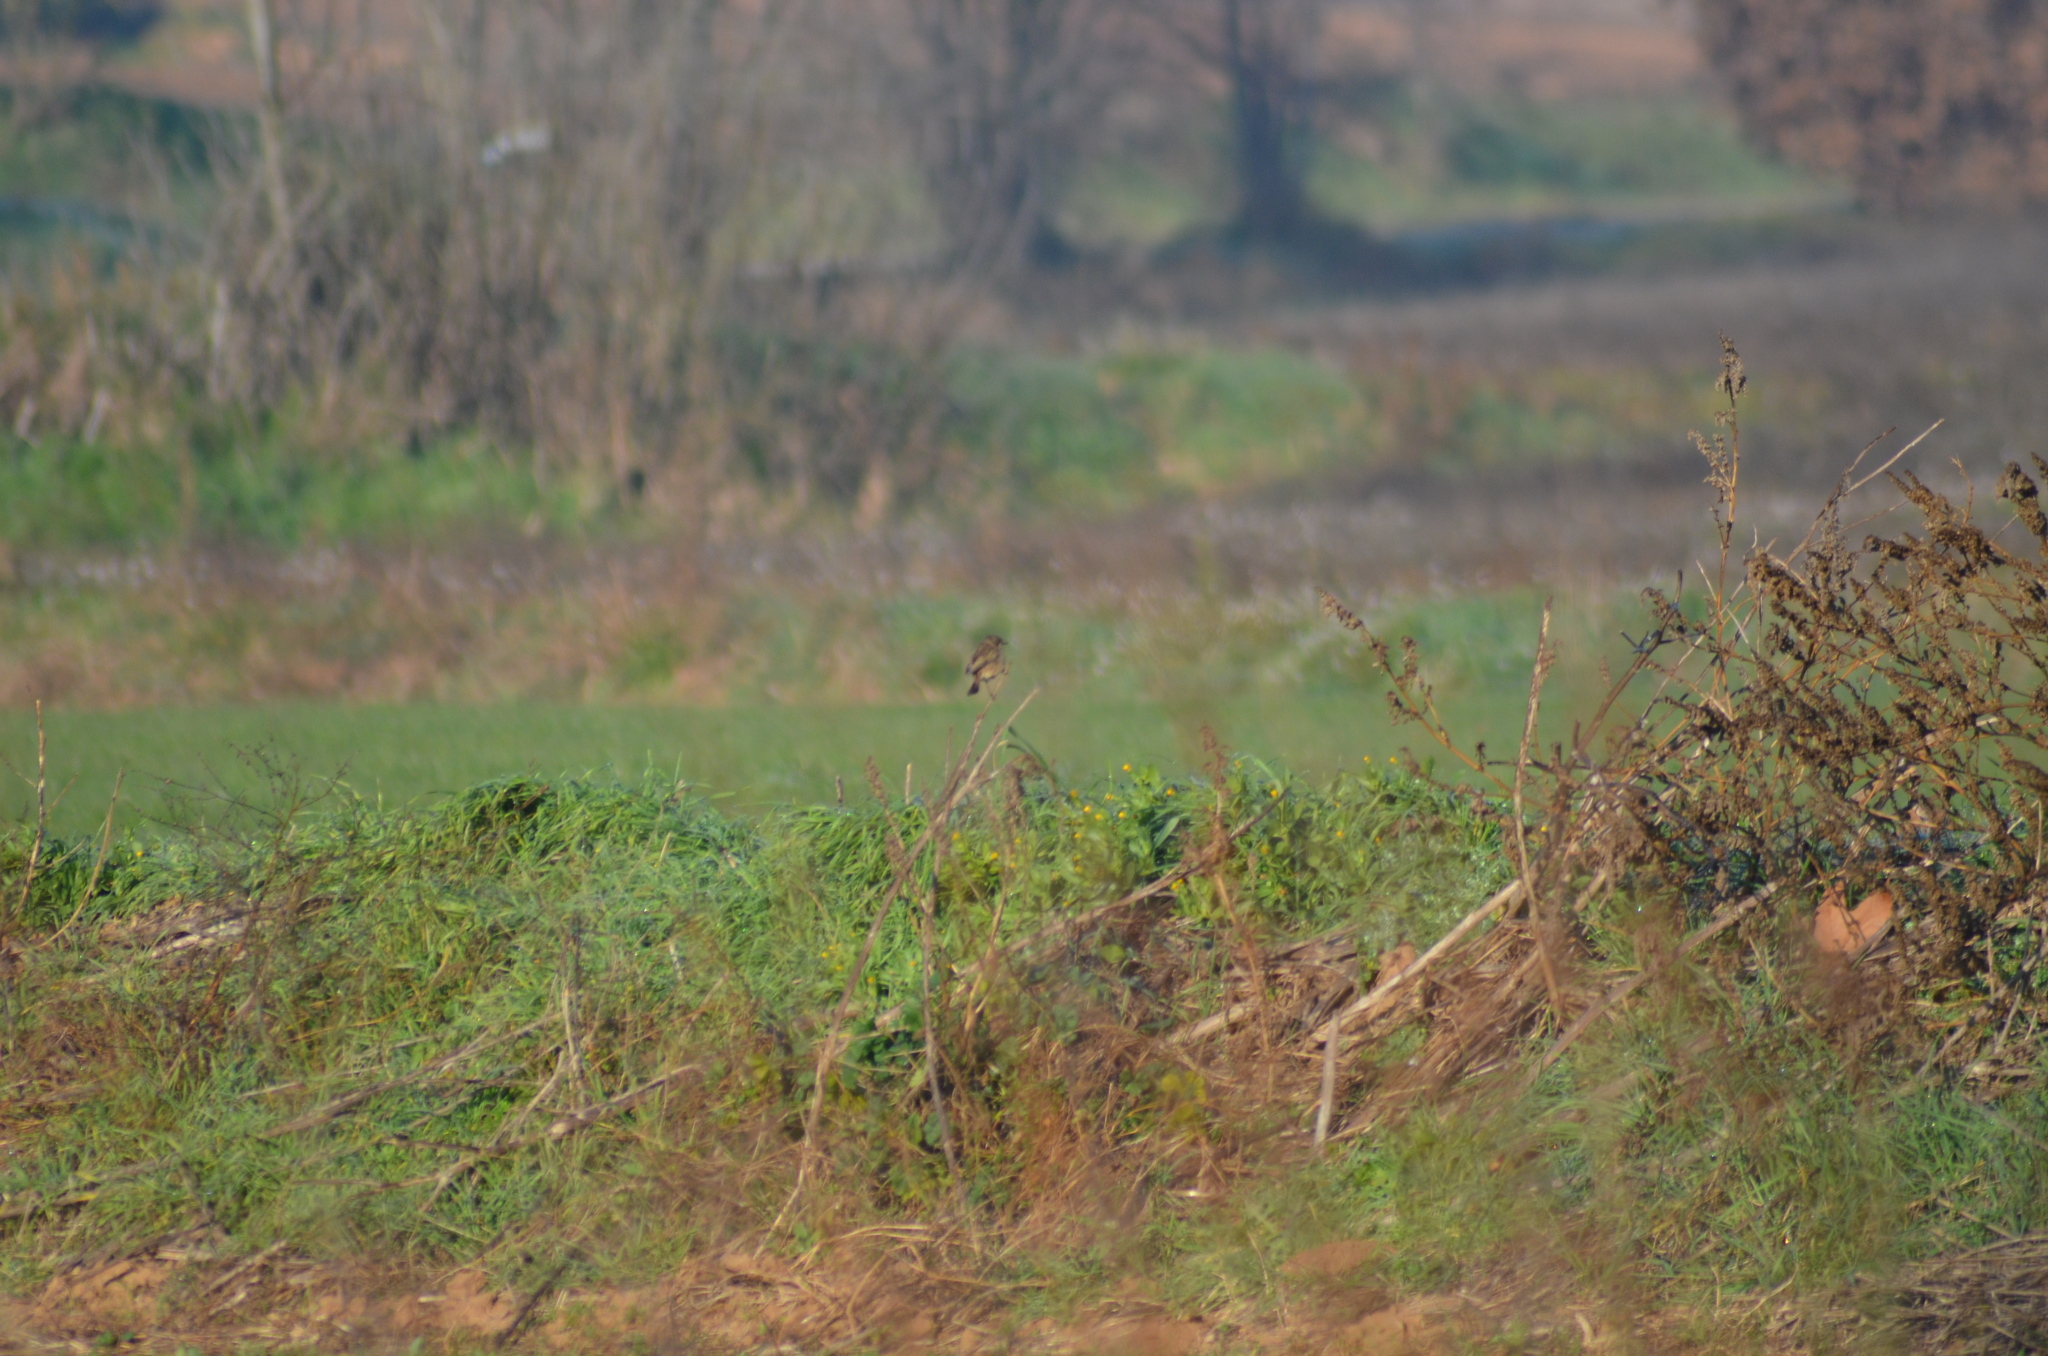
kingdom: Animalia
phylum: Chordata
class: Aves
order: Passeriformes
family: Muscicapidae
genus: Saxicola
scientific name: Saxicola rubicola
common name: European stonechat
